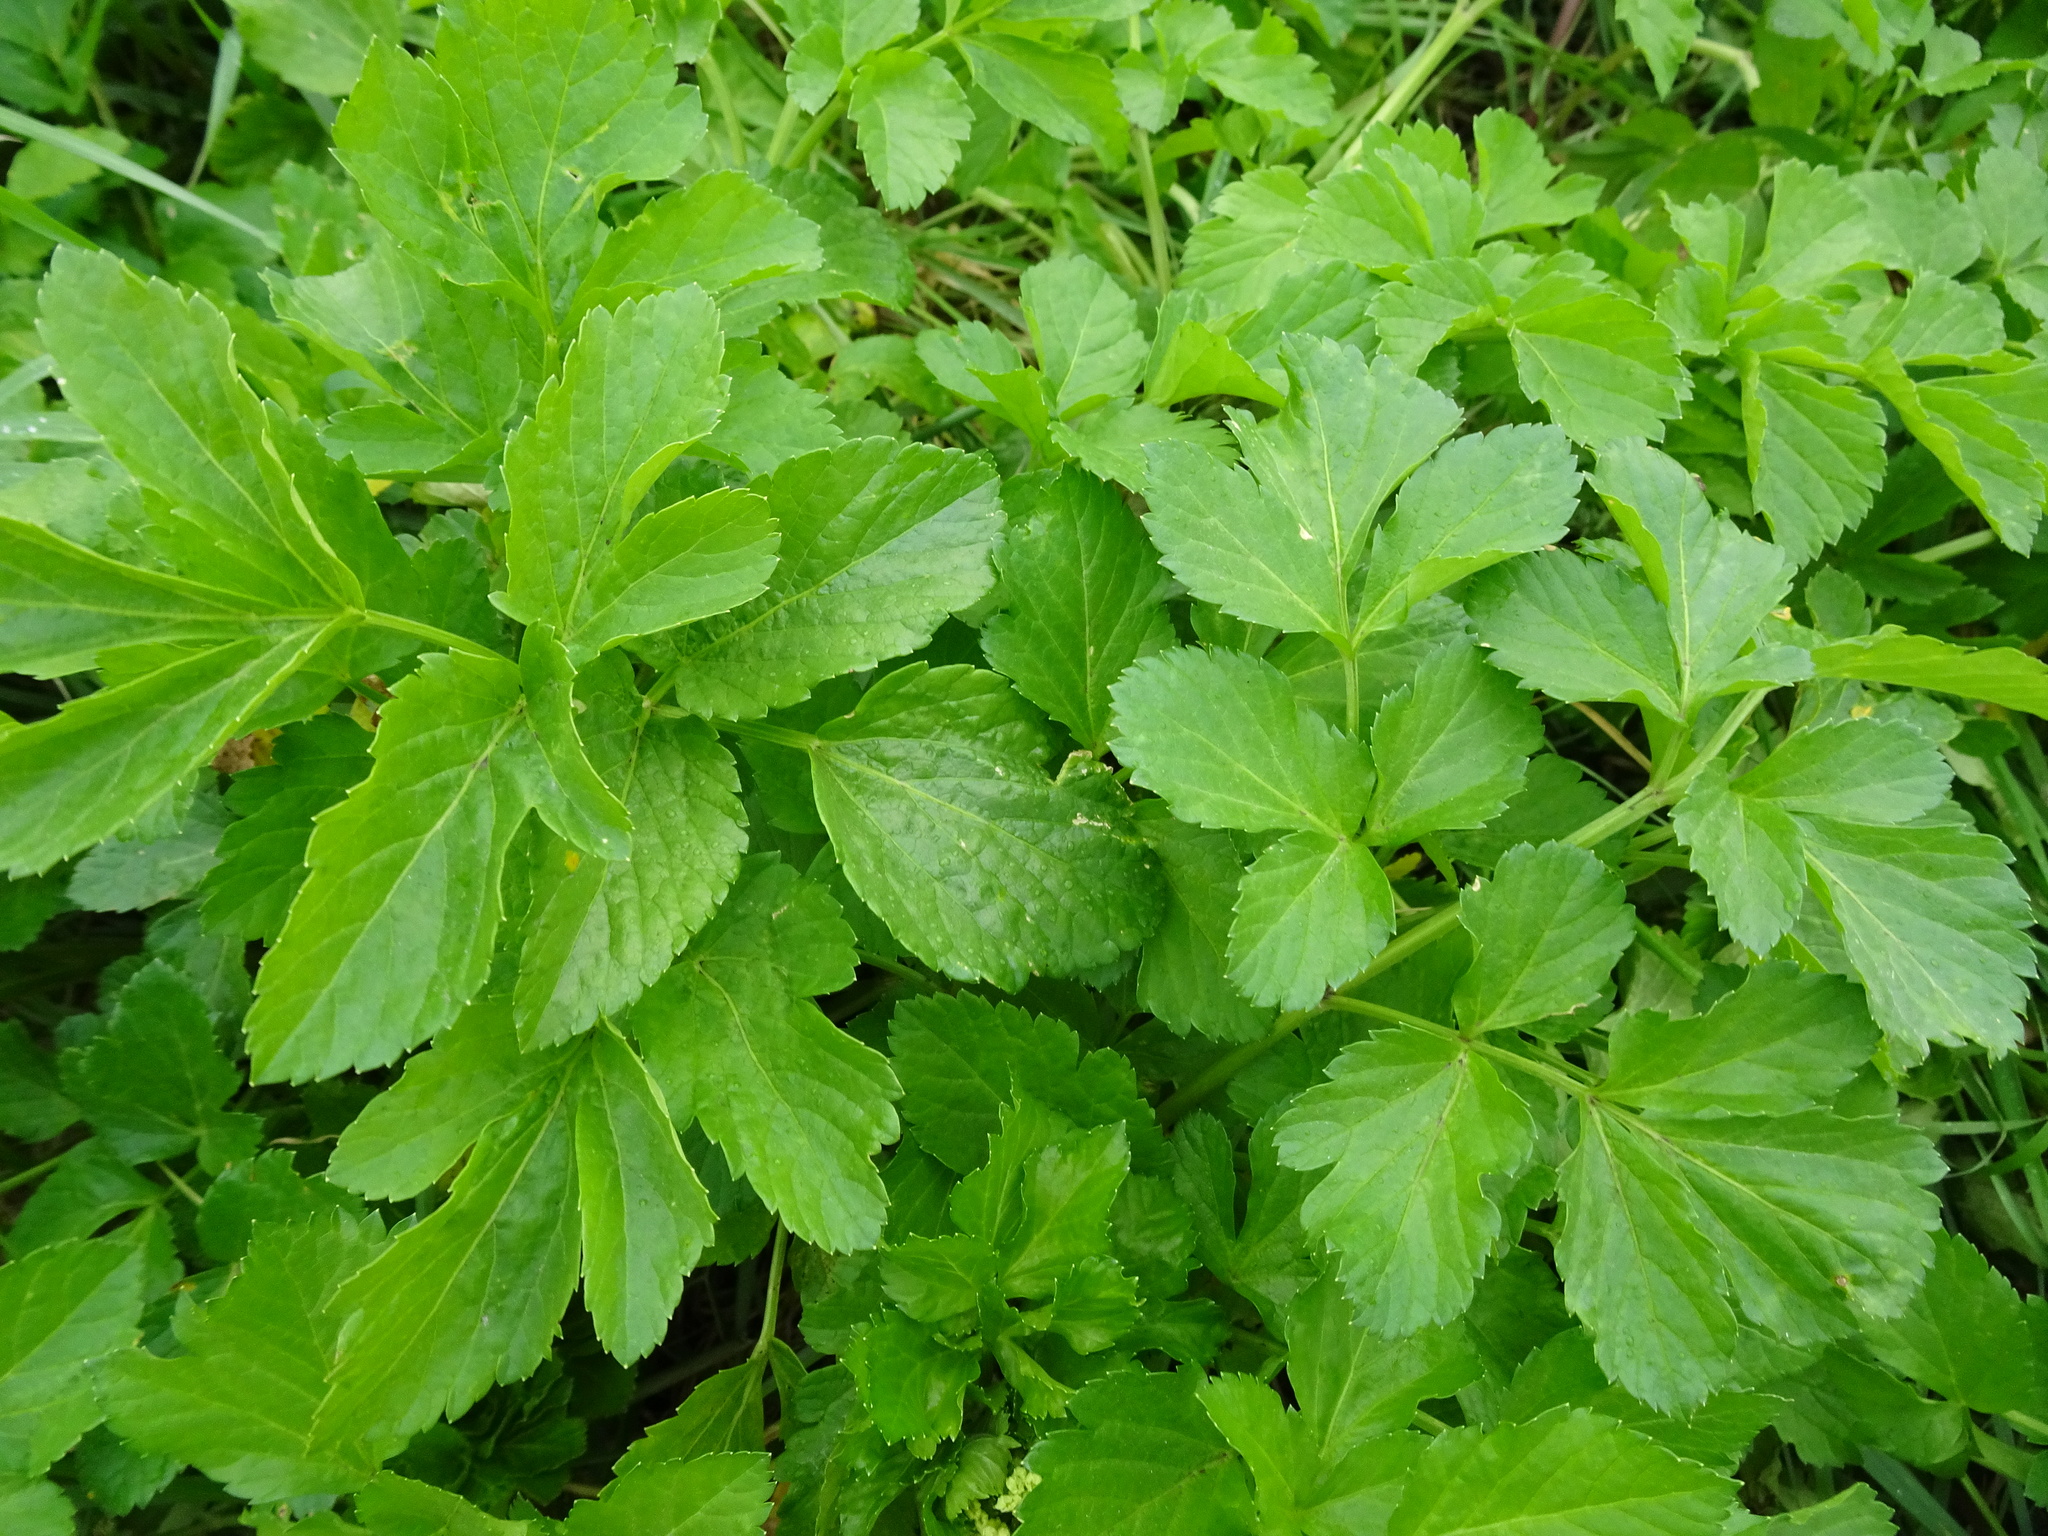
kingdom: Plantae
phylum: Tracheophyta
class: Magnoliopsida
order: Apiales
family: Apiaceae
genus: Smyrnium
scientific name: Smyrnium olusatrum
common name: Alexanders
